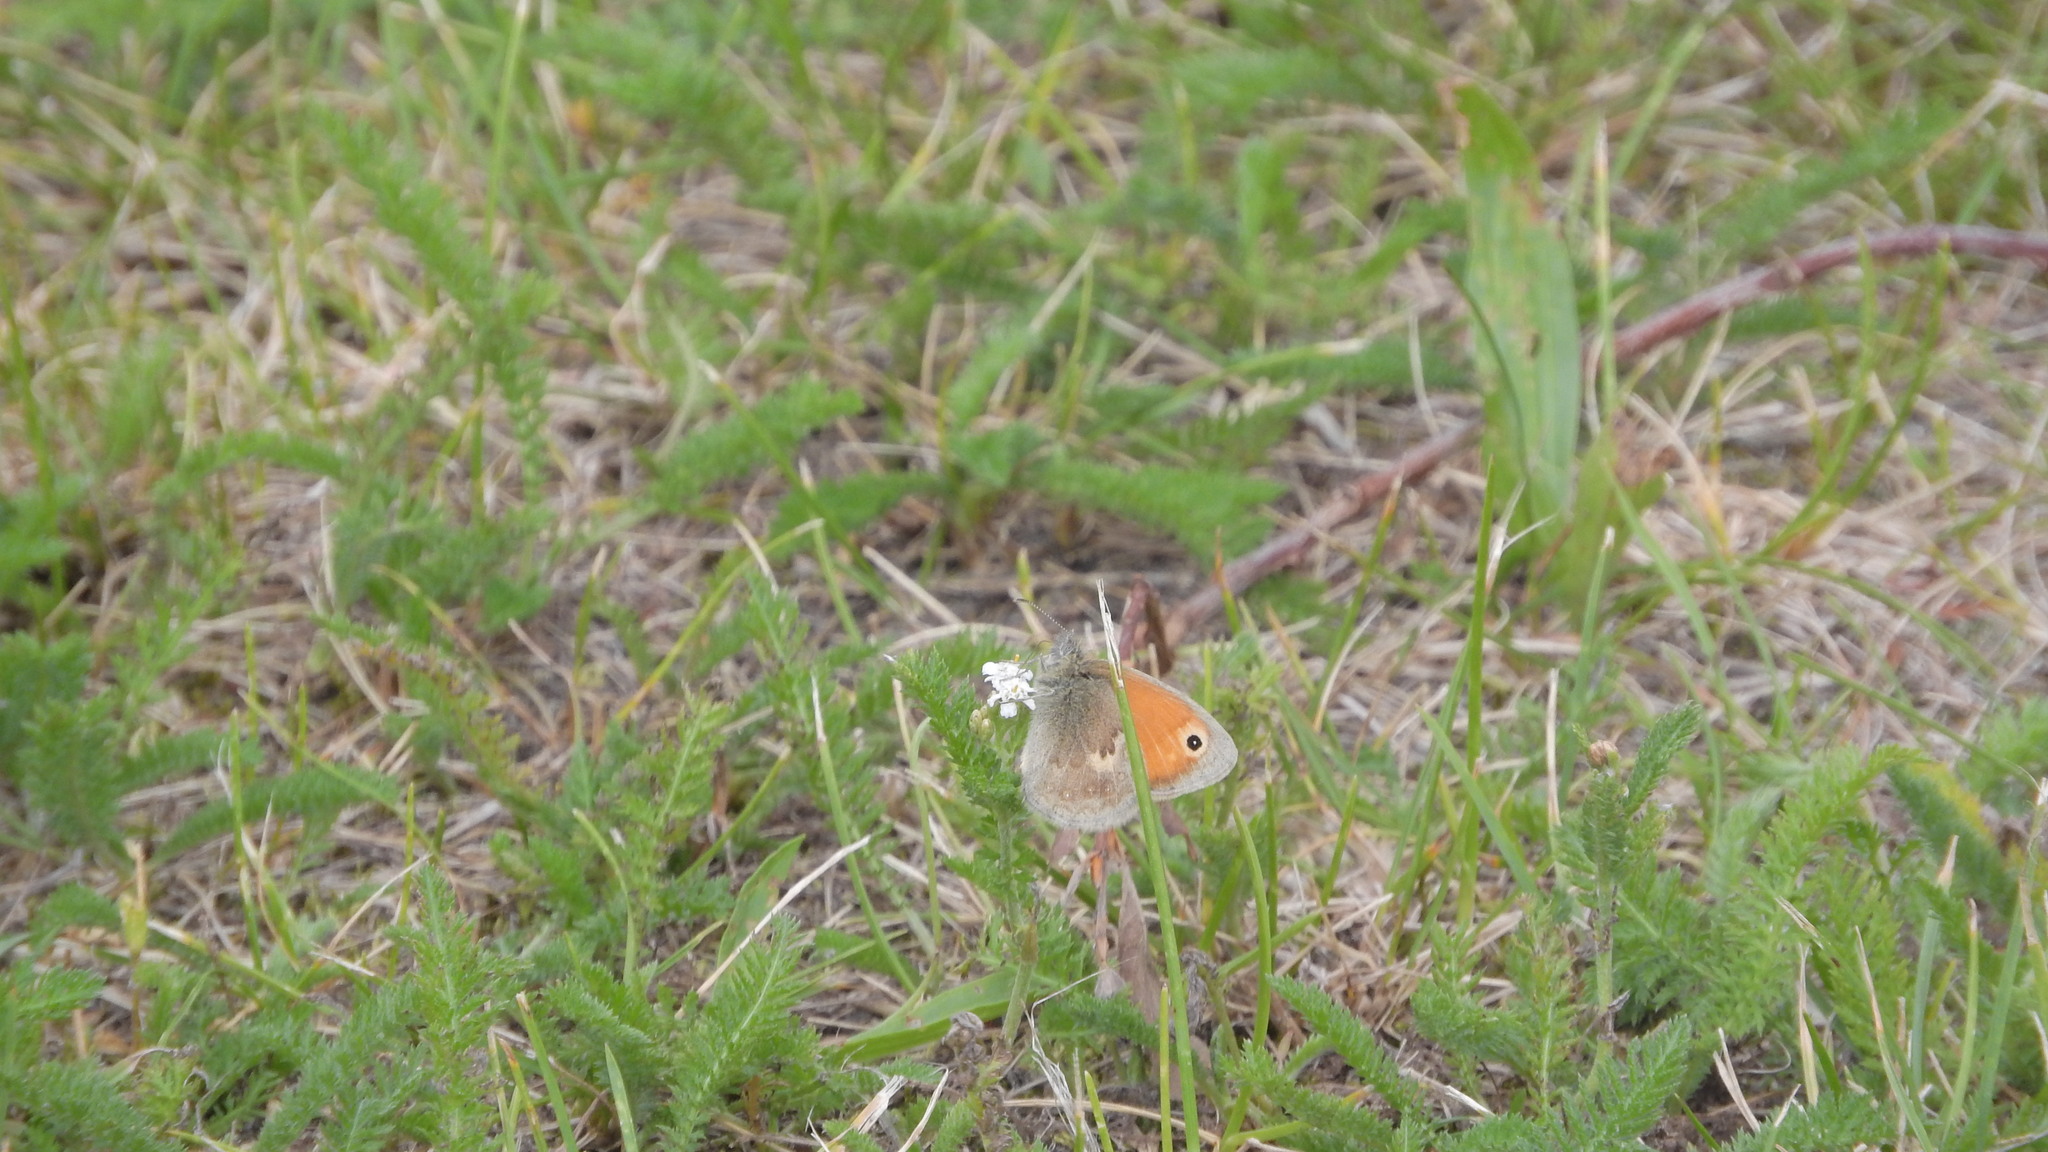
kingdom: Animalia
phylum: Arthropoda
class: Insecta
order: Lepidoptera
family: Nymphalidae
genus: Coenonympha
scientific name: Coenonympha pamphilus
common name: Small heath
